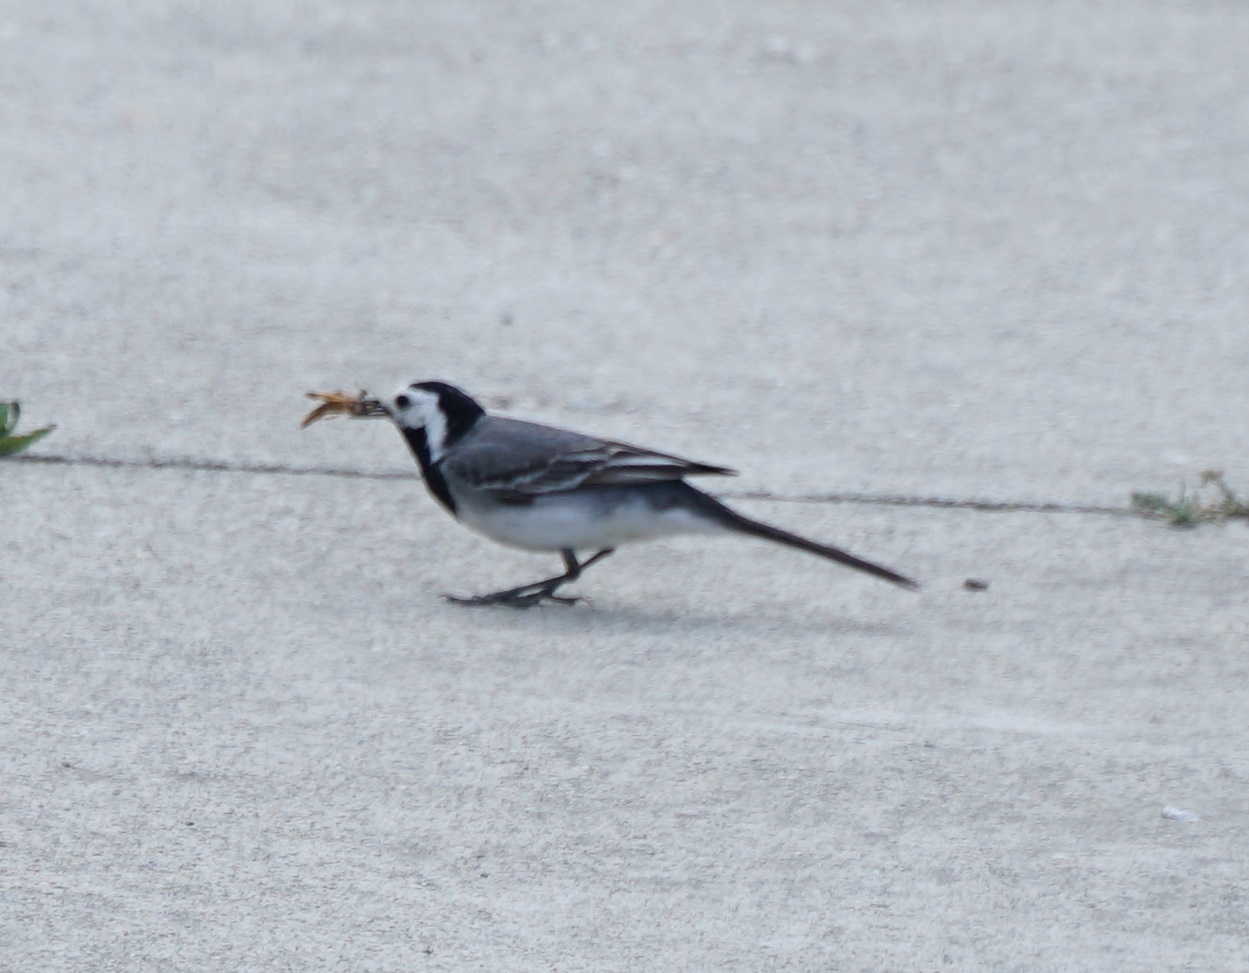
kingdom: Animalia
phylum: Chordata
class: Aves
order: Passeriformes
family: Motacillidae
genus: Motacilla
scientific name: Motacilla alba
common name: White wagtail
